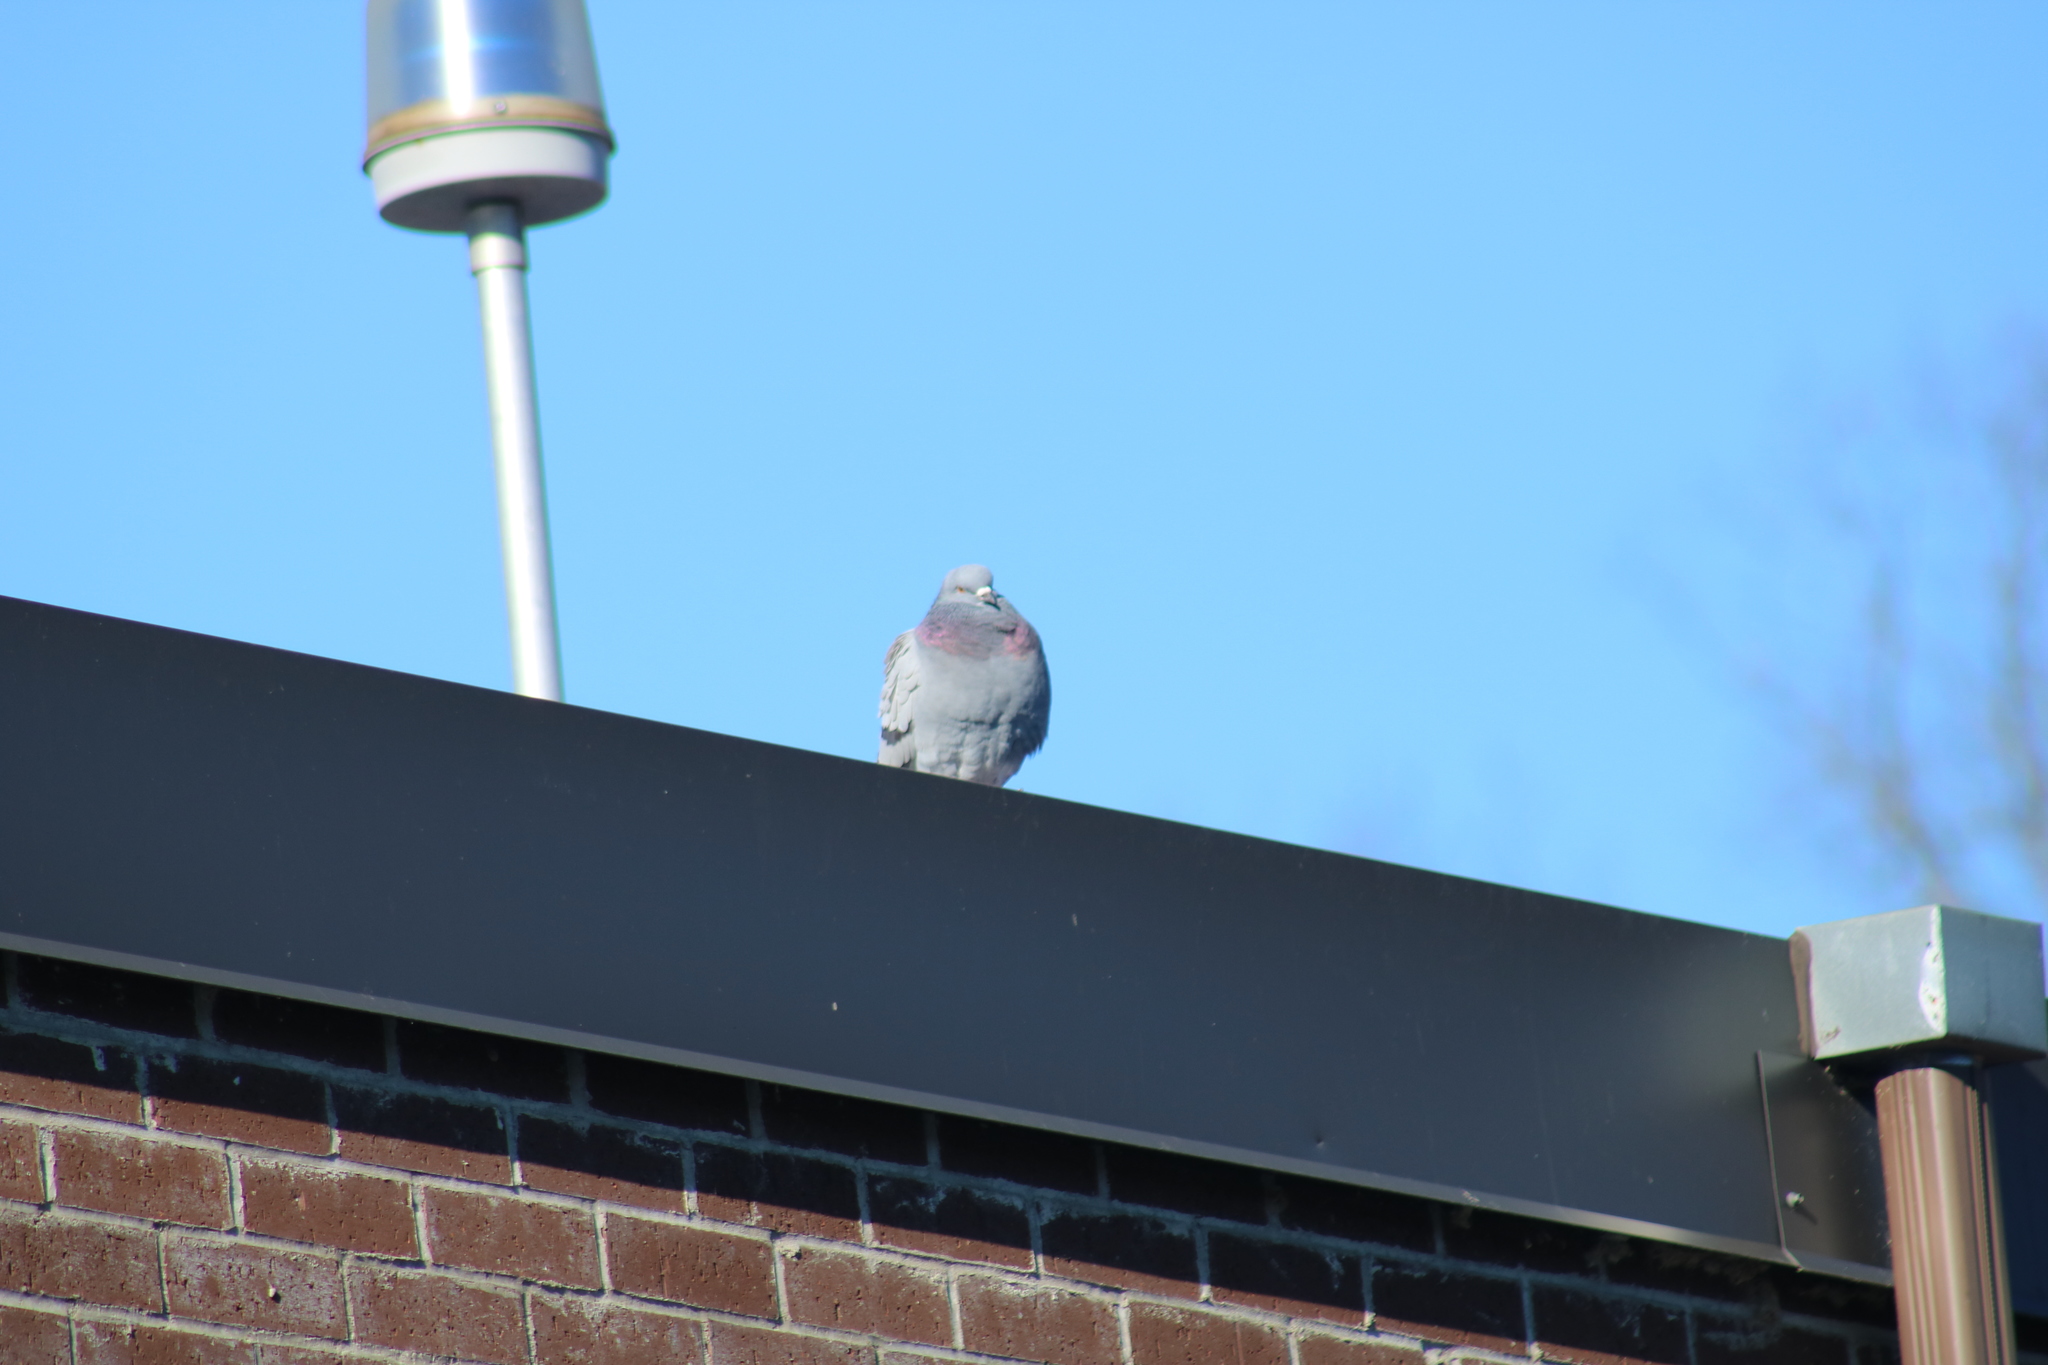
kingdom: Animalia
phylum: Chordata
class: Aves
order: Columbiformes
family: Columbidae
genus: Columba
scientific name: Columba livia
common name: Rock pigeon
